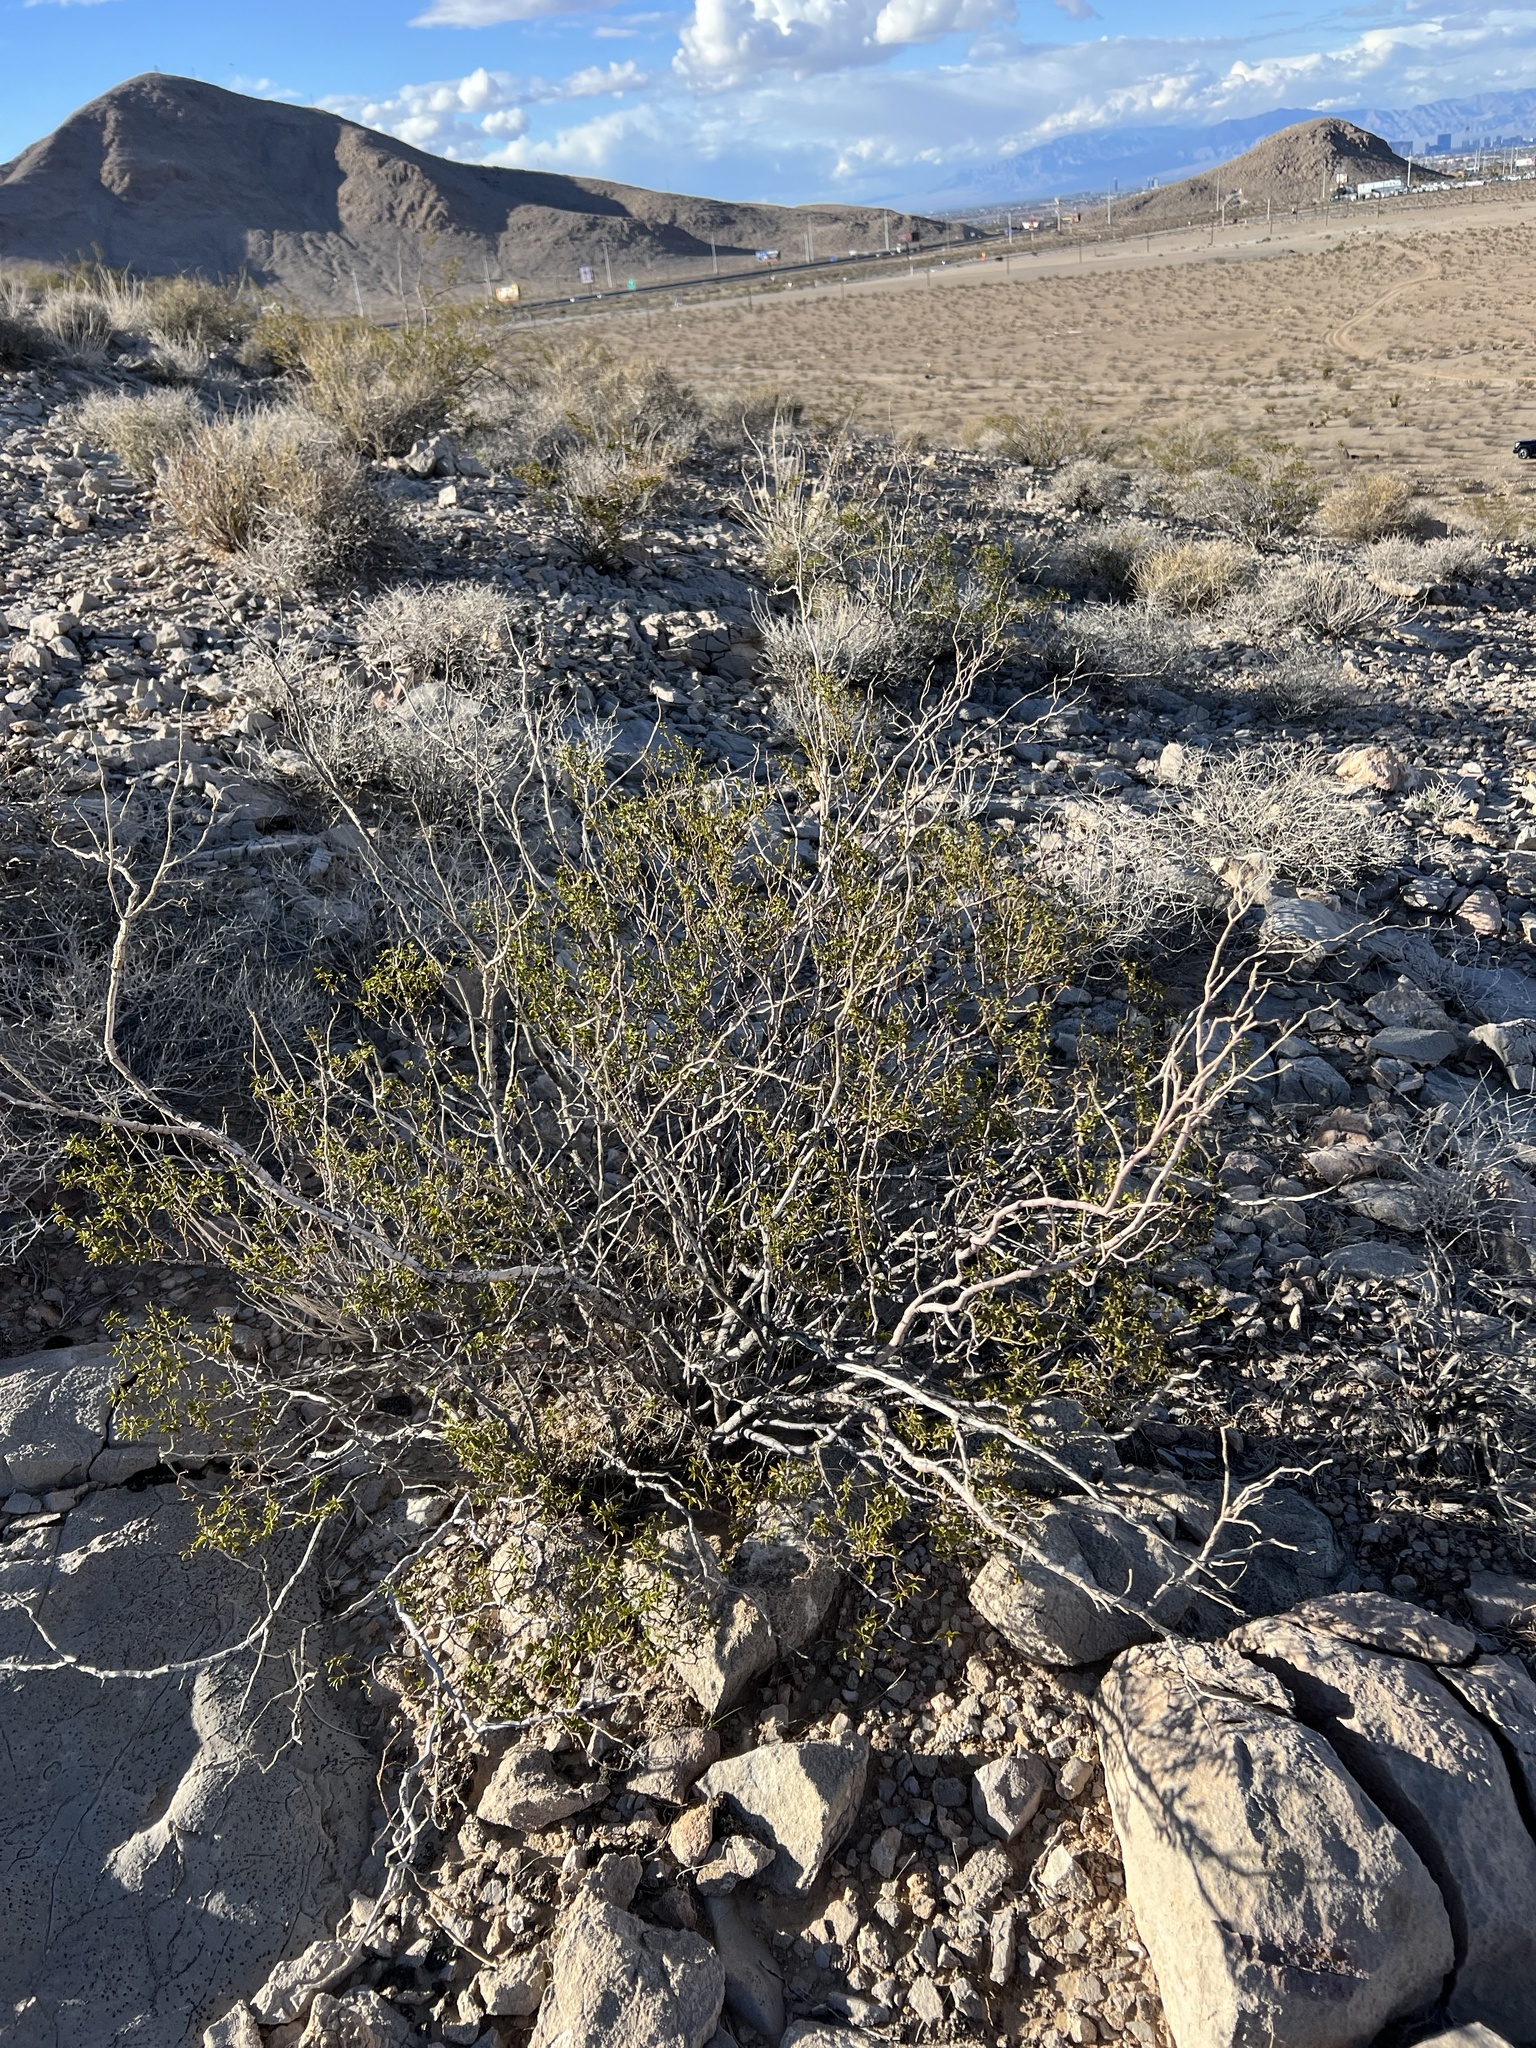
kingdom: Plantae
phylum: Tracheophyta
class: Magnoliopsida
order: Zygophyllales
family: Zygophyllaceae
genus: Larrea
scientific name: Larrea tridentata
